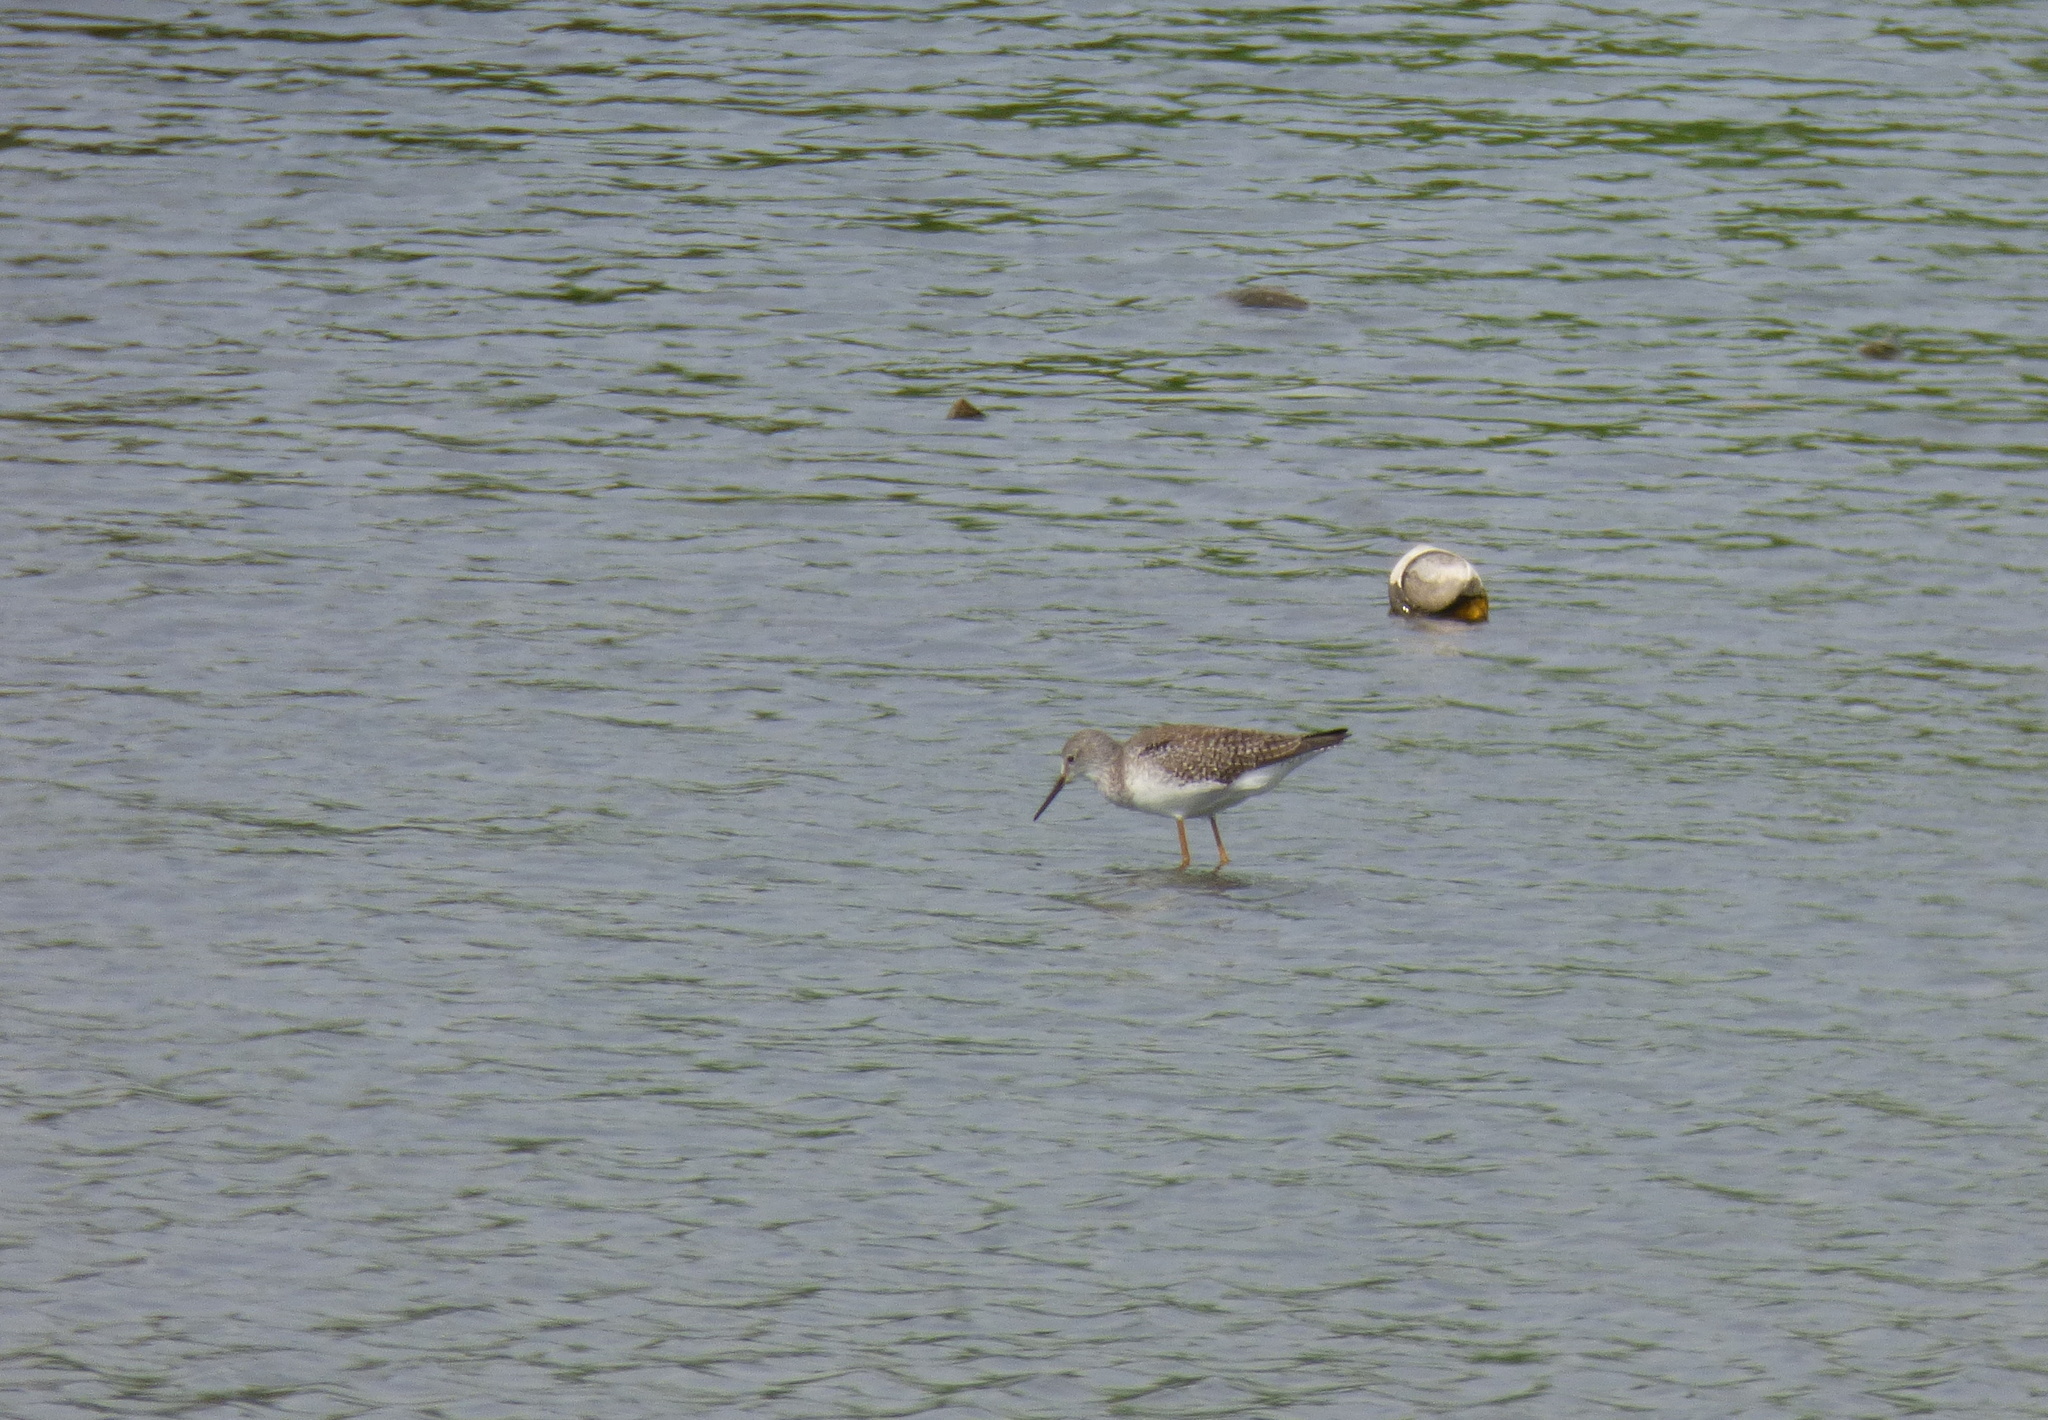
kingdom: Animalia
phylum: Chordata
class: Aves
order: Charadriiformes
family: Scolopacidae
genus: Tringa
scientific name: Tringa flavipes
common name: Lesser yellowlegs
